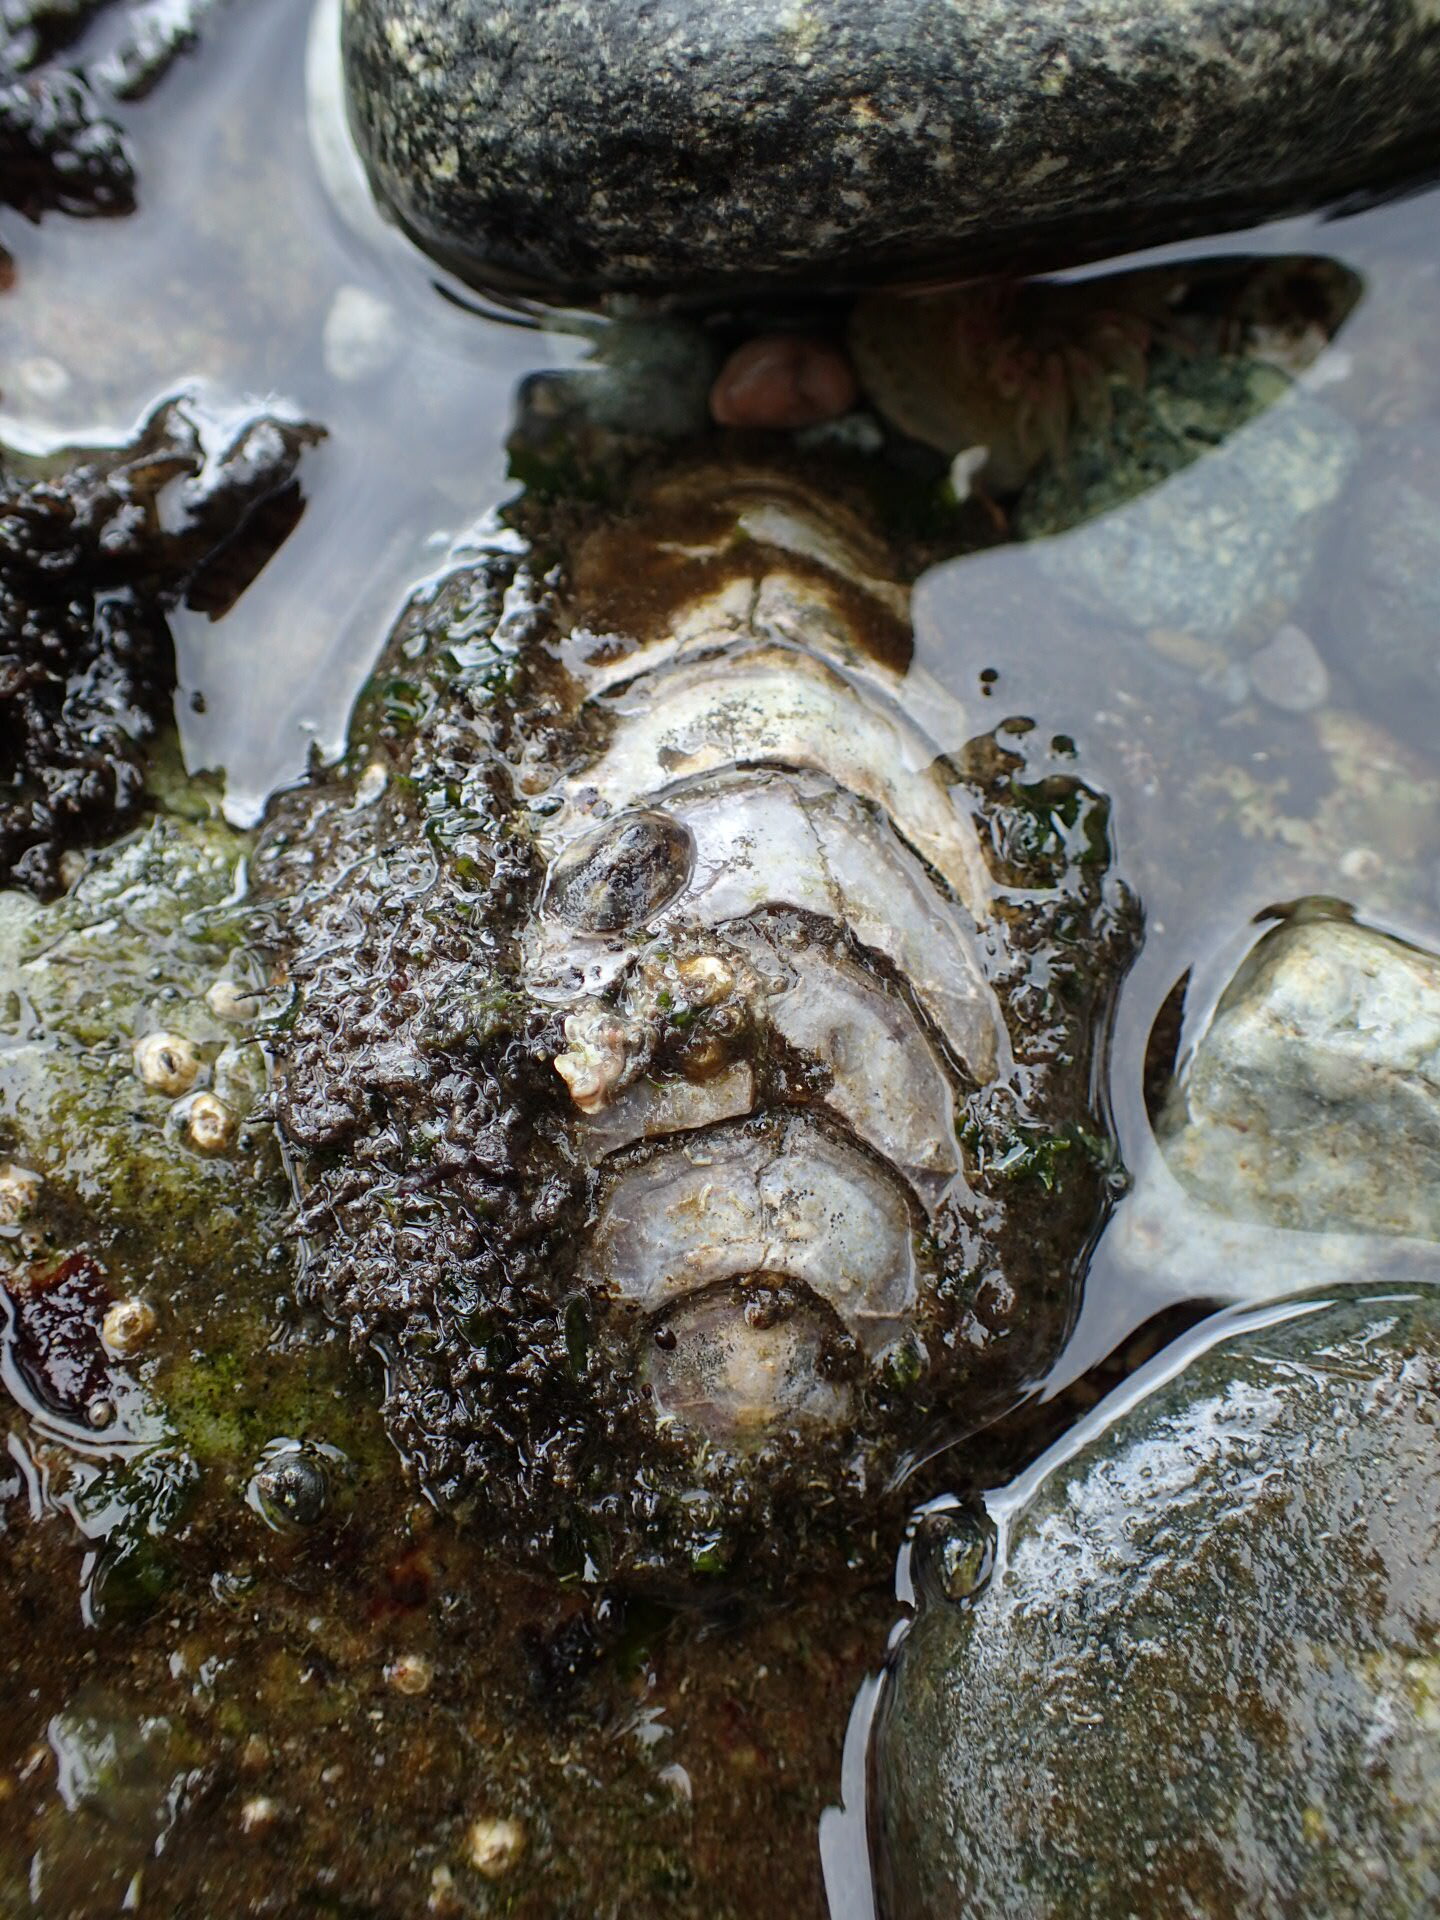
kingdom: Animalia
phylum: Mollusca
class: Polyplacophora
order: Chitonida
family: Mopaliidae
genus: Mopalia
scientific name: Mopalia muscosa
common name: Mossy chiton
